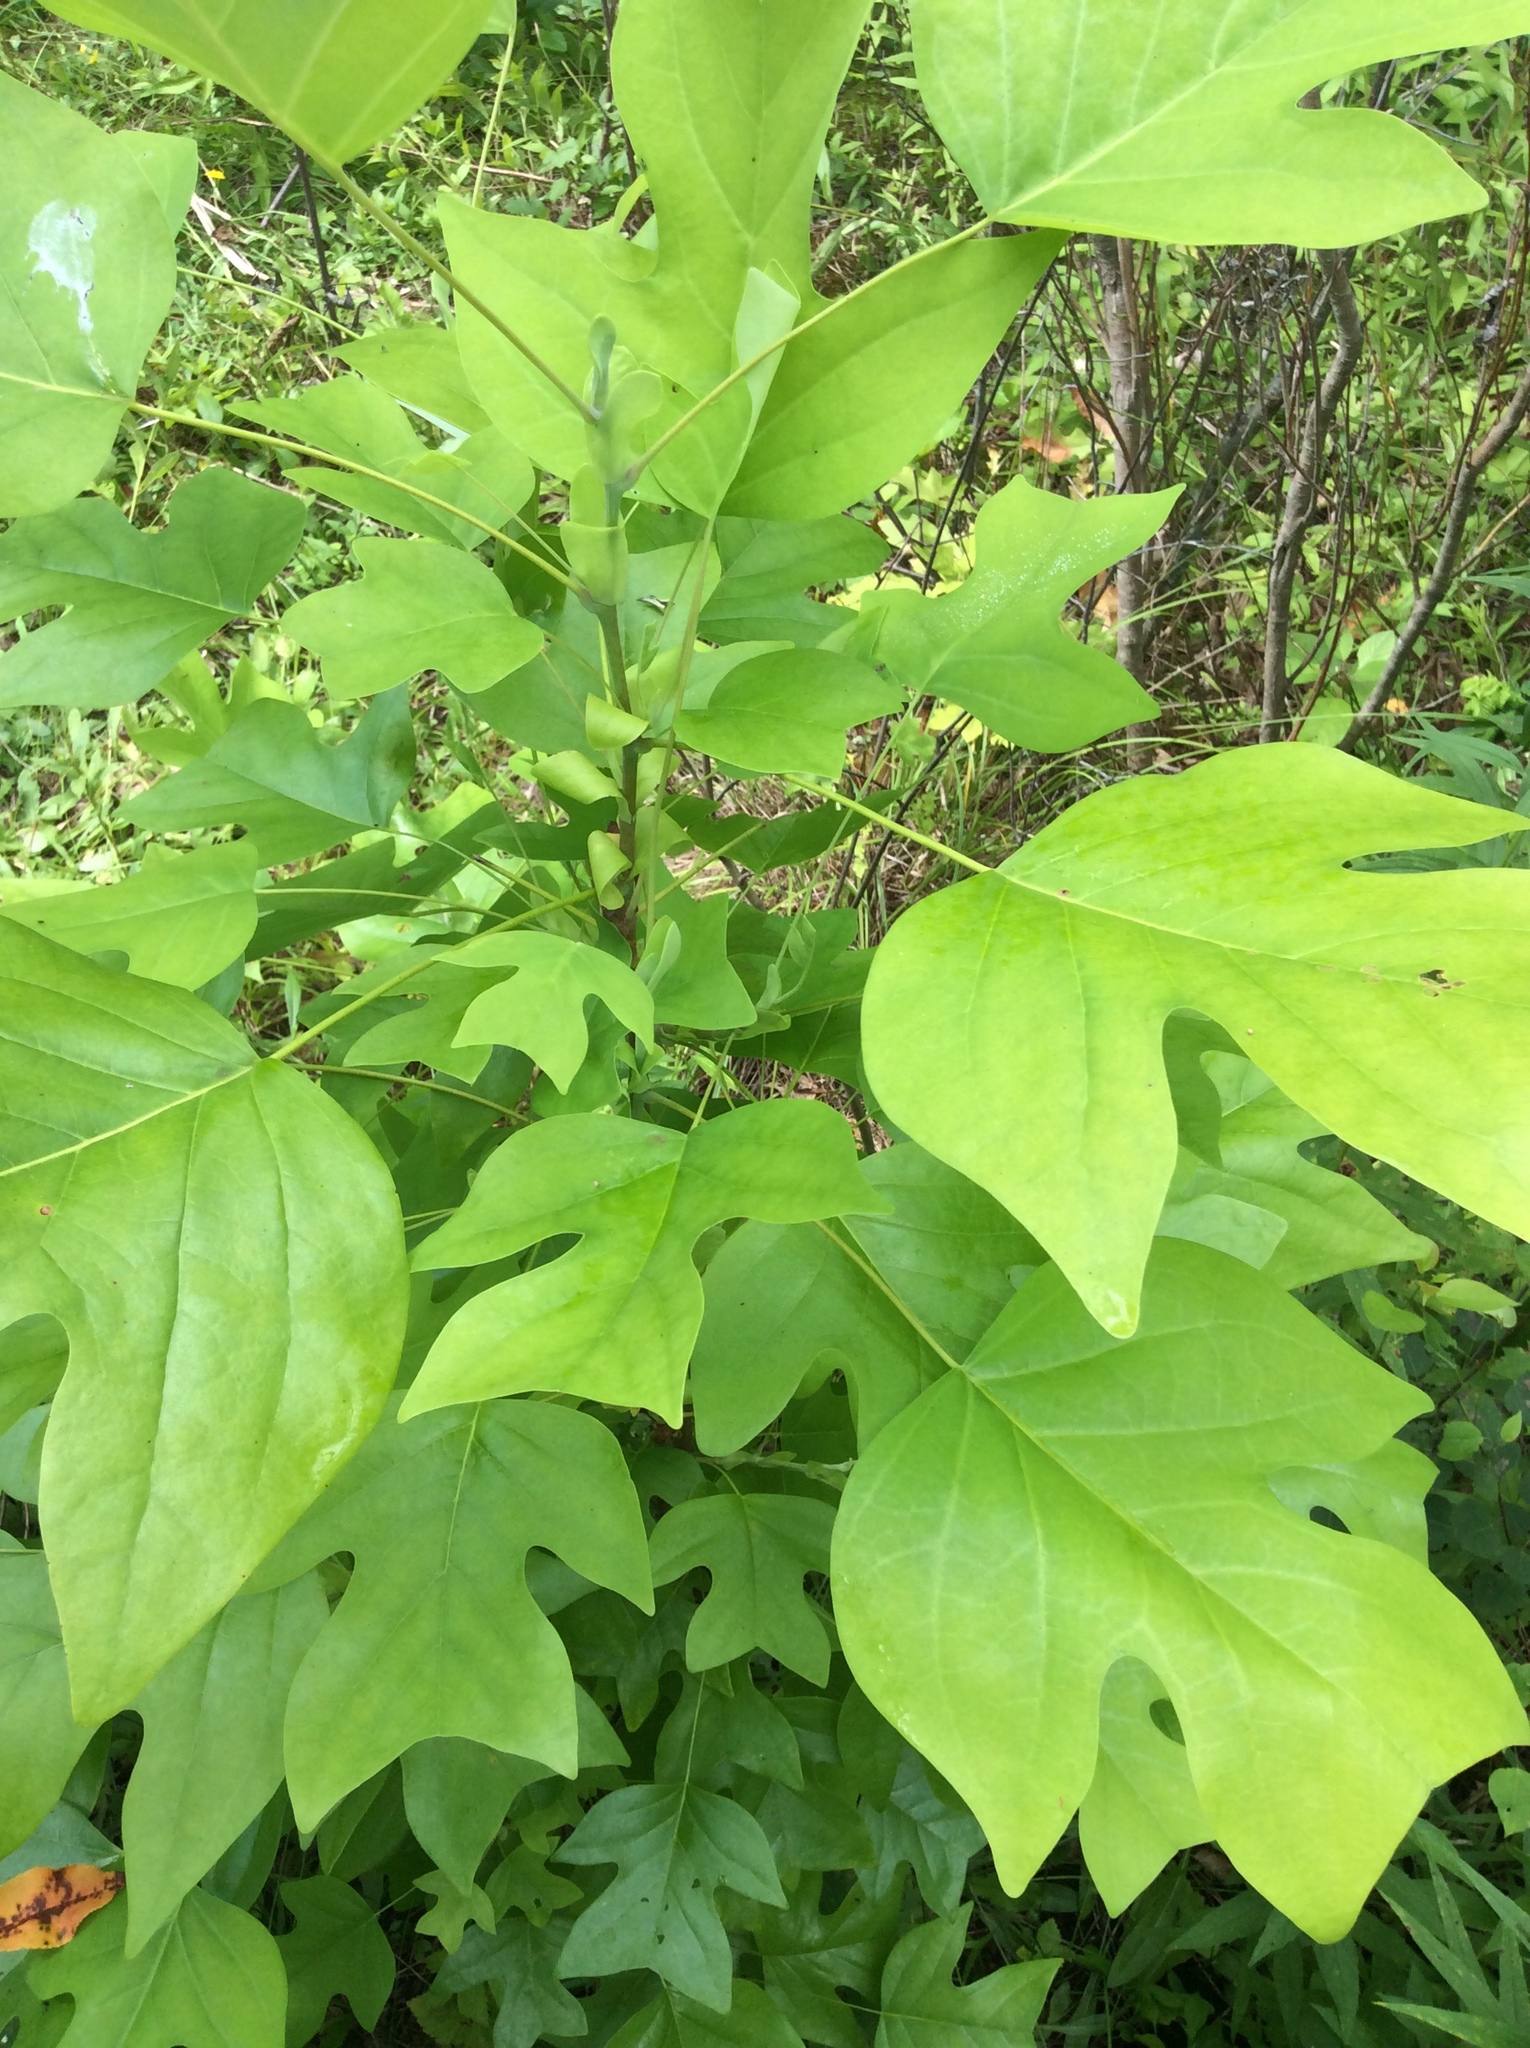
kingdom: Plantae
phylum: Tracheophyta
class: Magnoliopsida
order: Magnoliales
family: Magnoliaceae
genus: Liriodendron
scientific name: Liriodendron tulipifera
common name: Tulip tree
